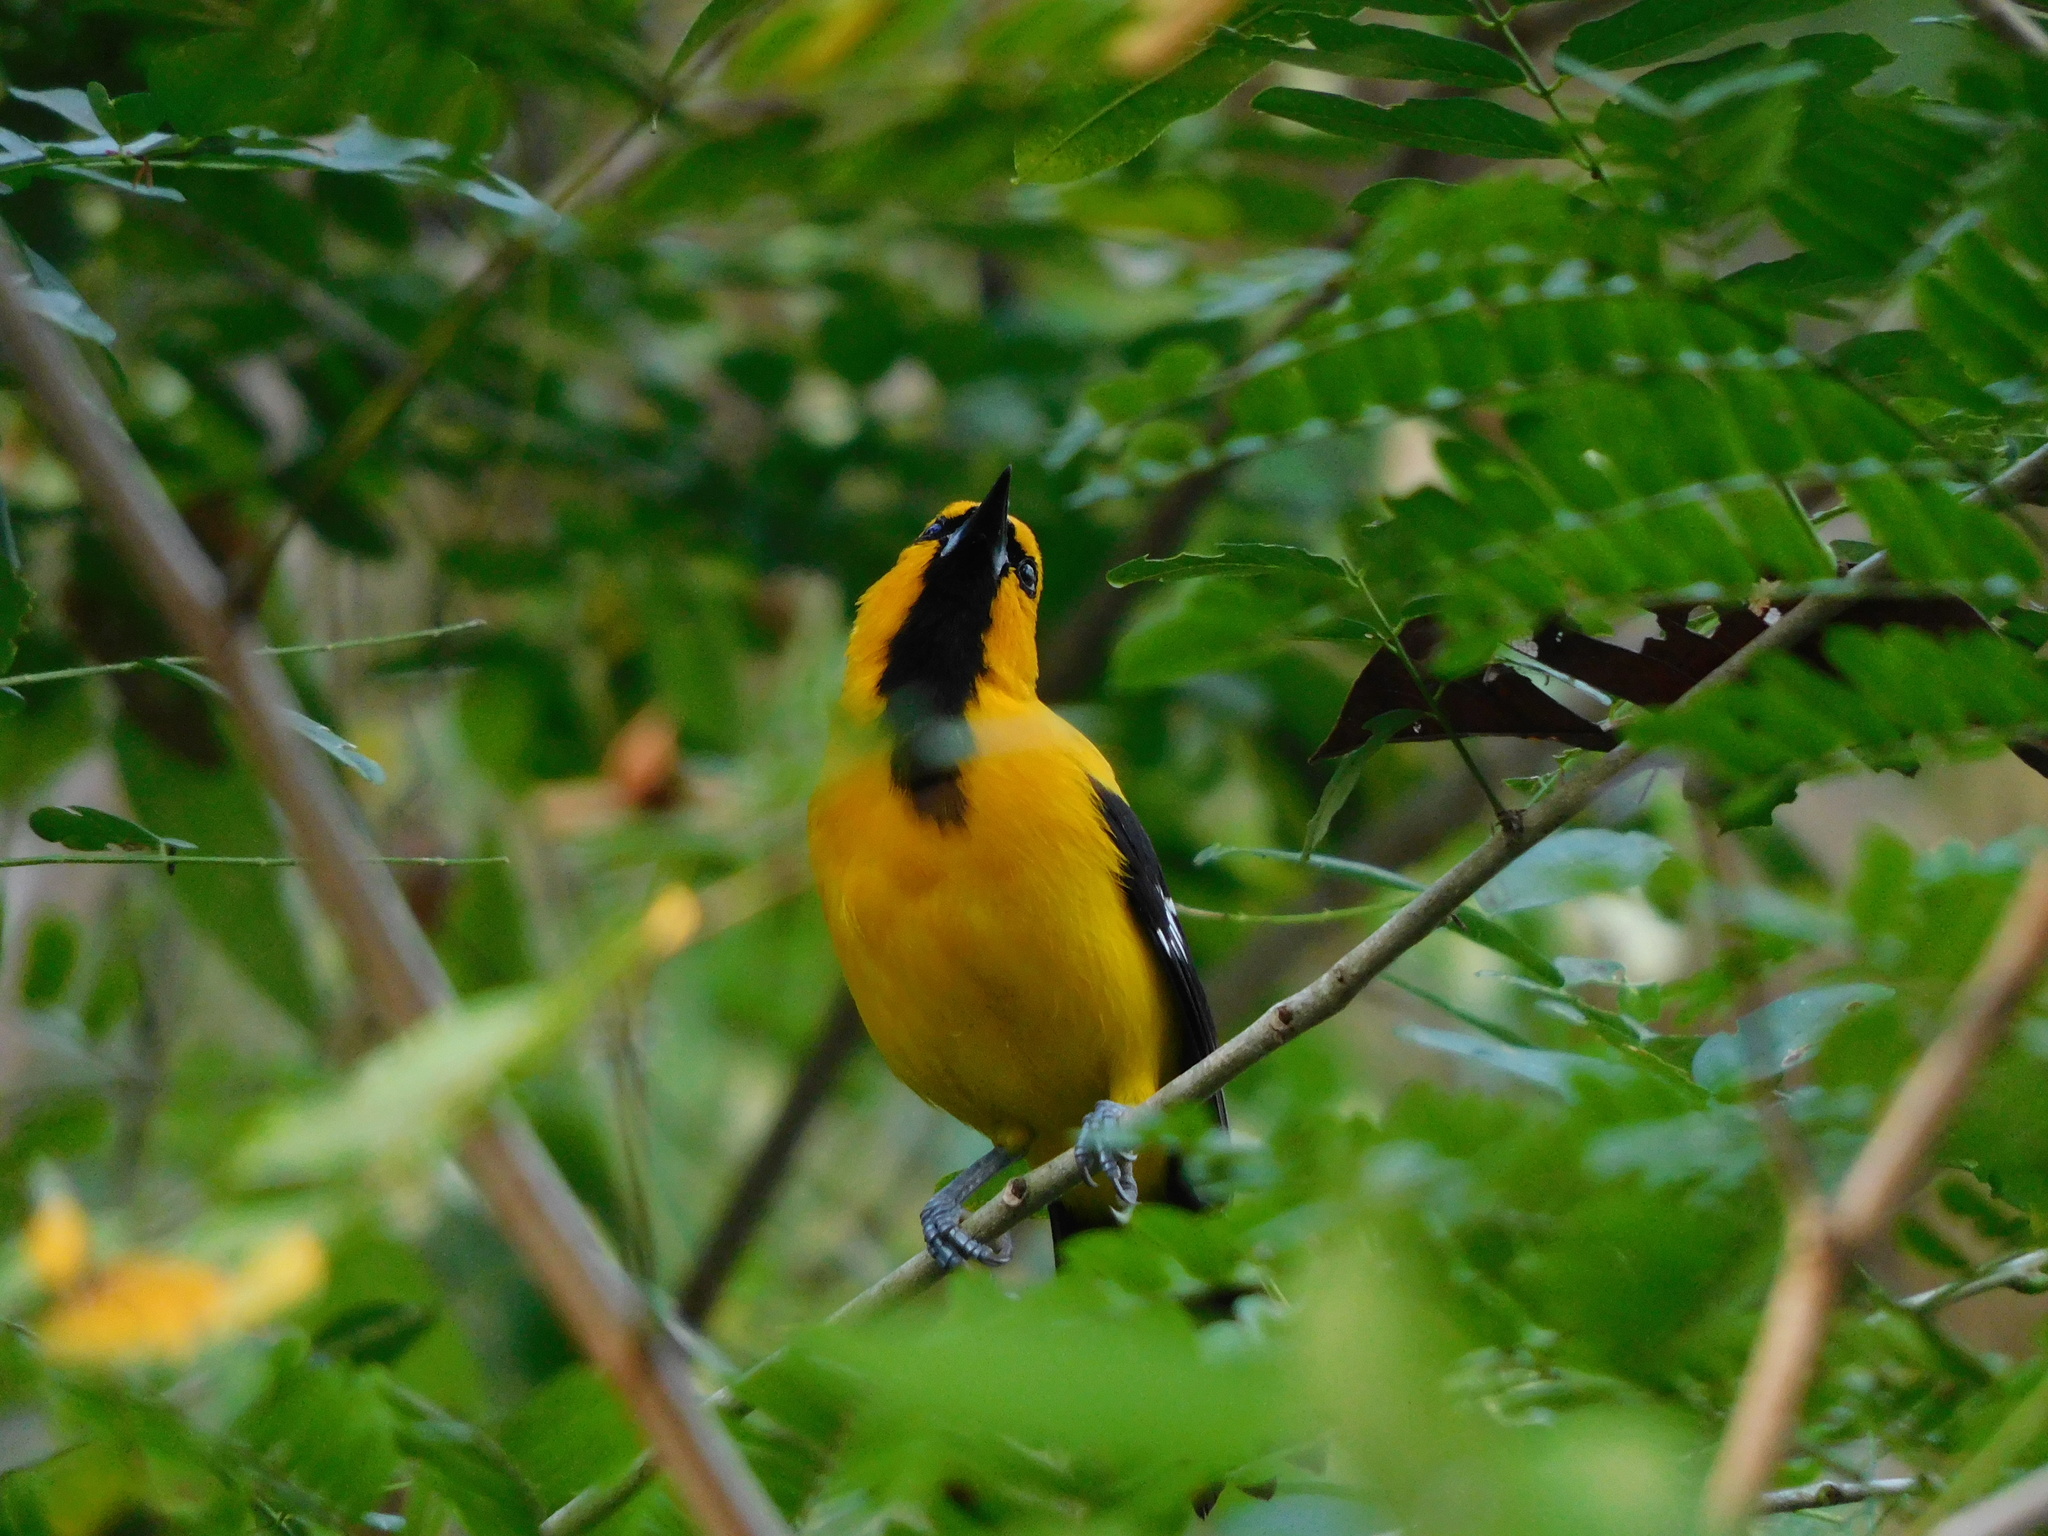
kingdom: Animalia
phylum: Chordata
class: Aves
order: Passeriformes
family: Icteridae
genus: Icterus
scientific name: Icterus nigrogularis
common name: Yellow oriole
